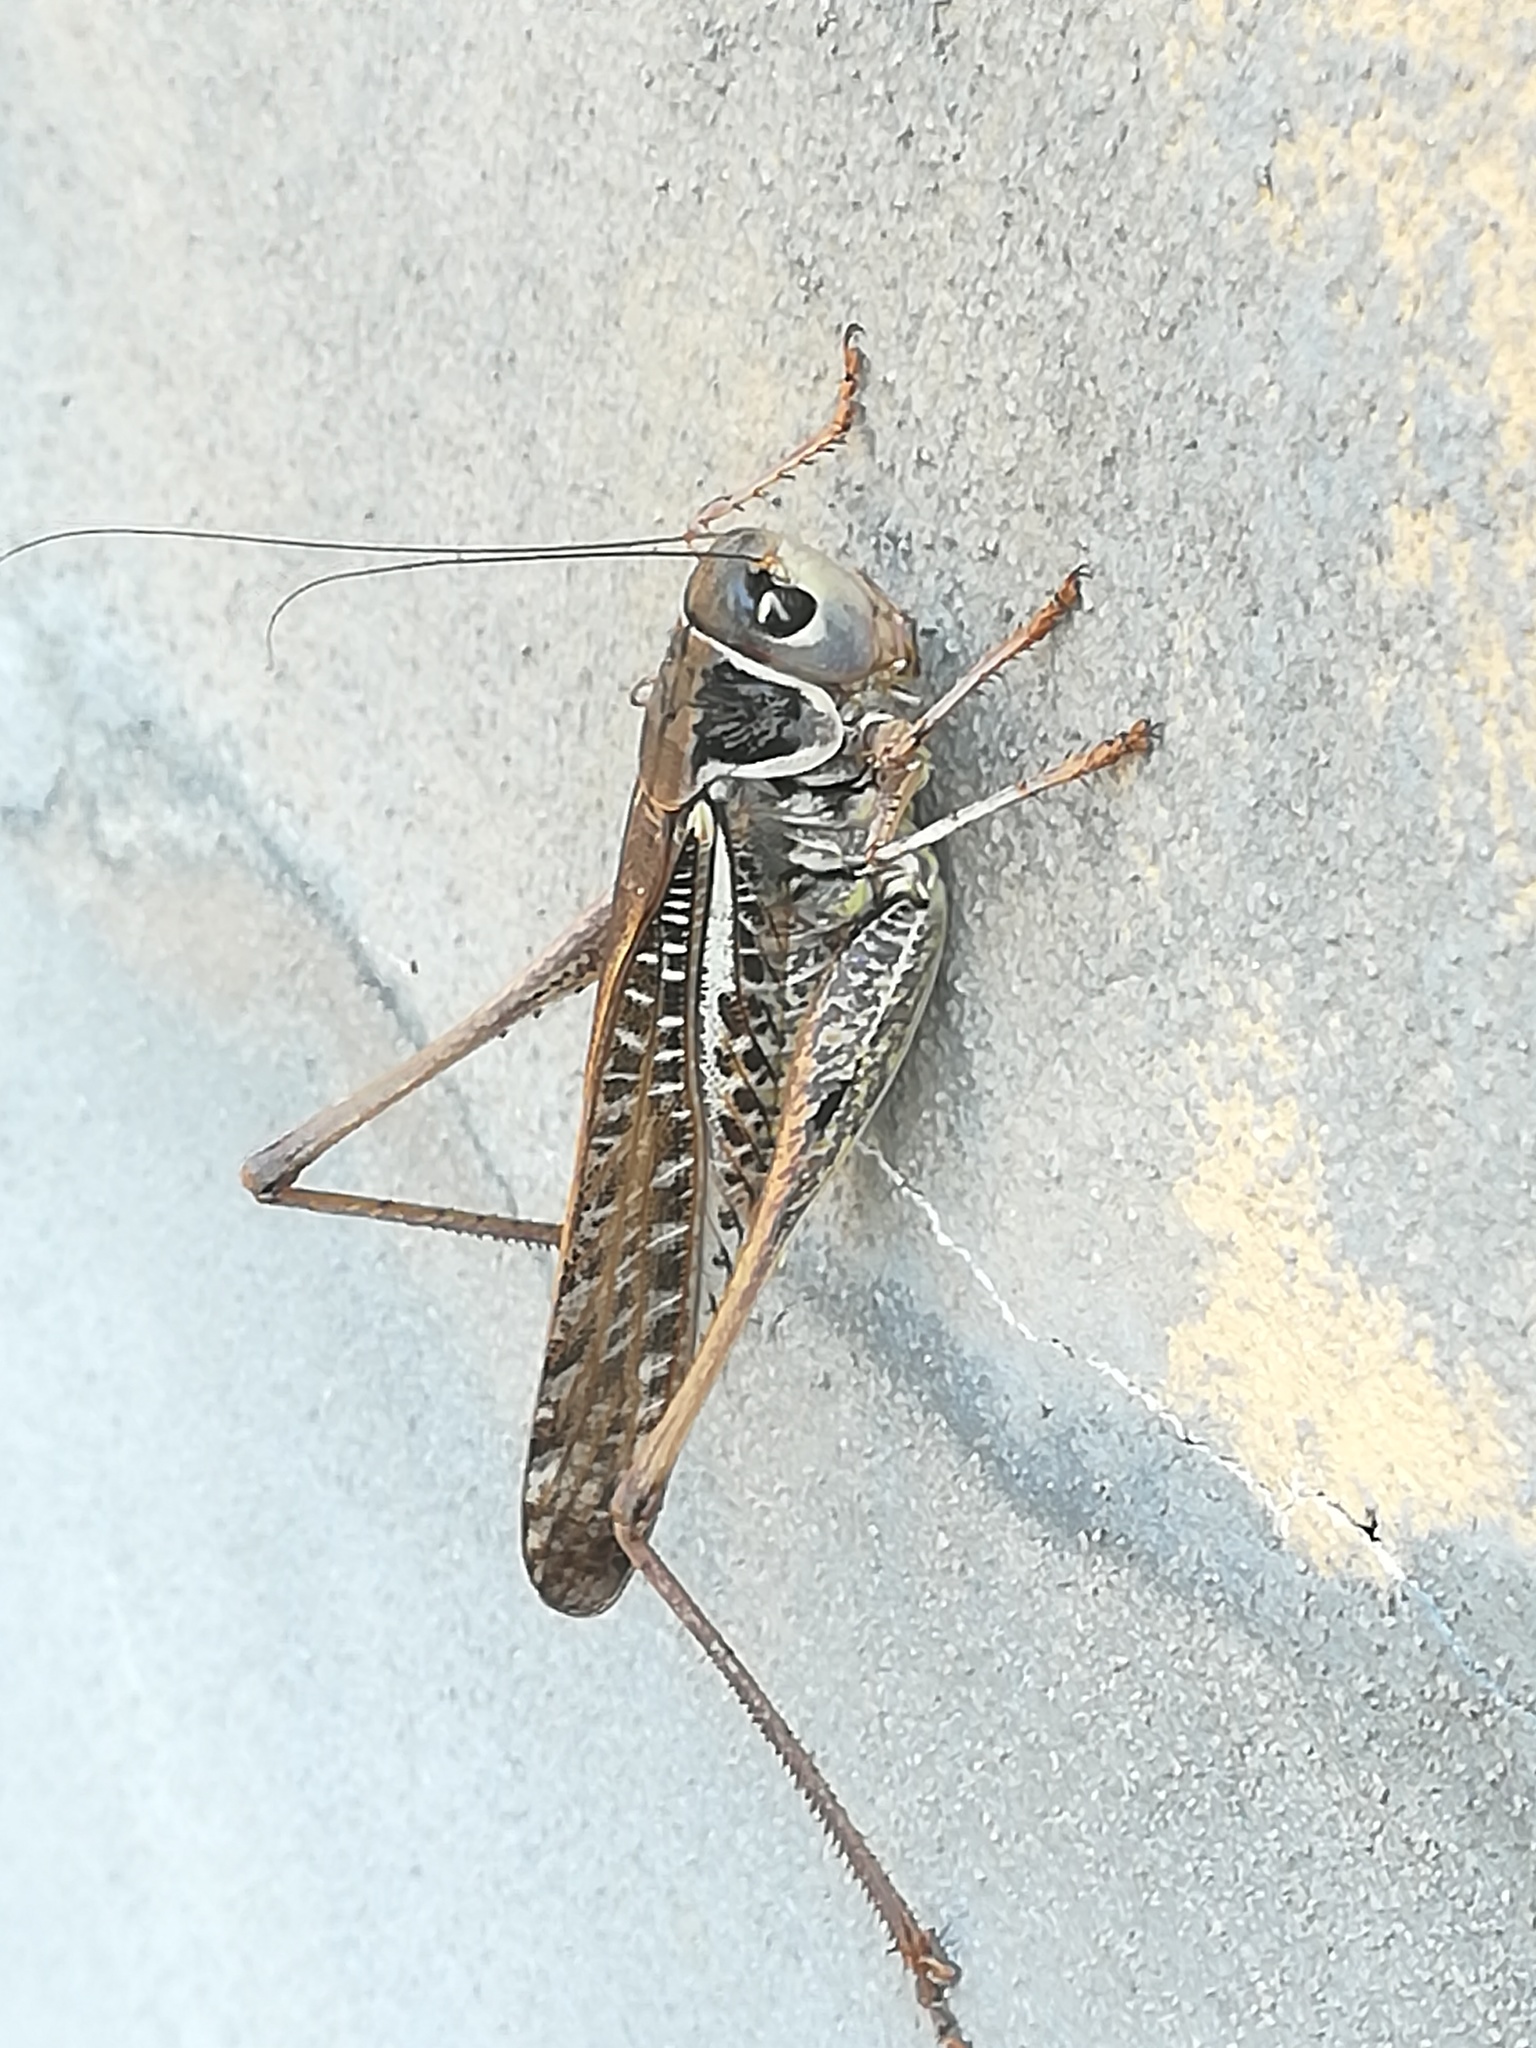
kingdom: Animalia
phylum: Arthropoda
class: Insecta
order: Orthoptera
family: Tettigoniidae
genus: Decticus
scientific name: Decticus albifrons
